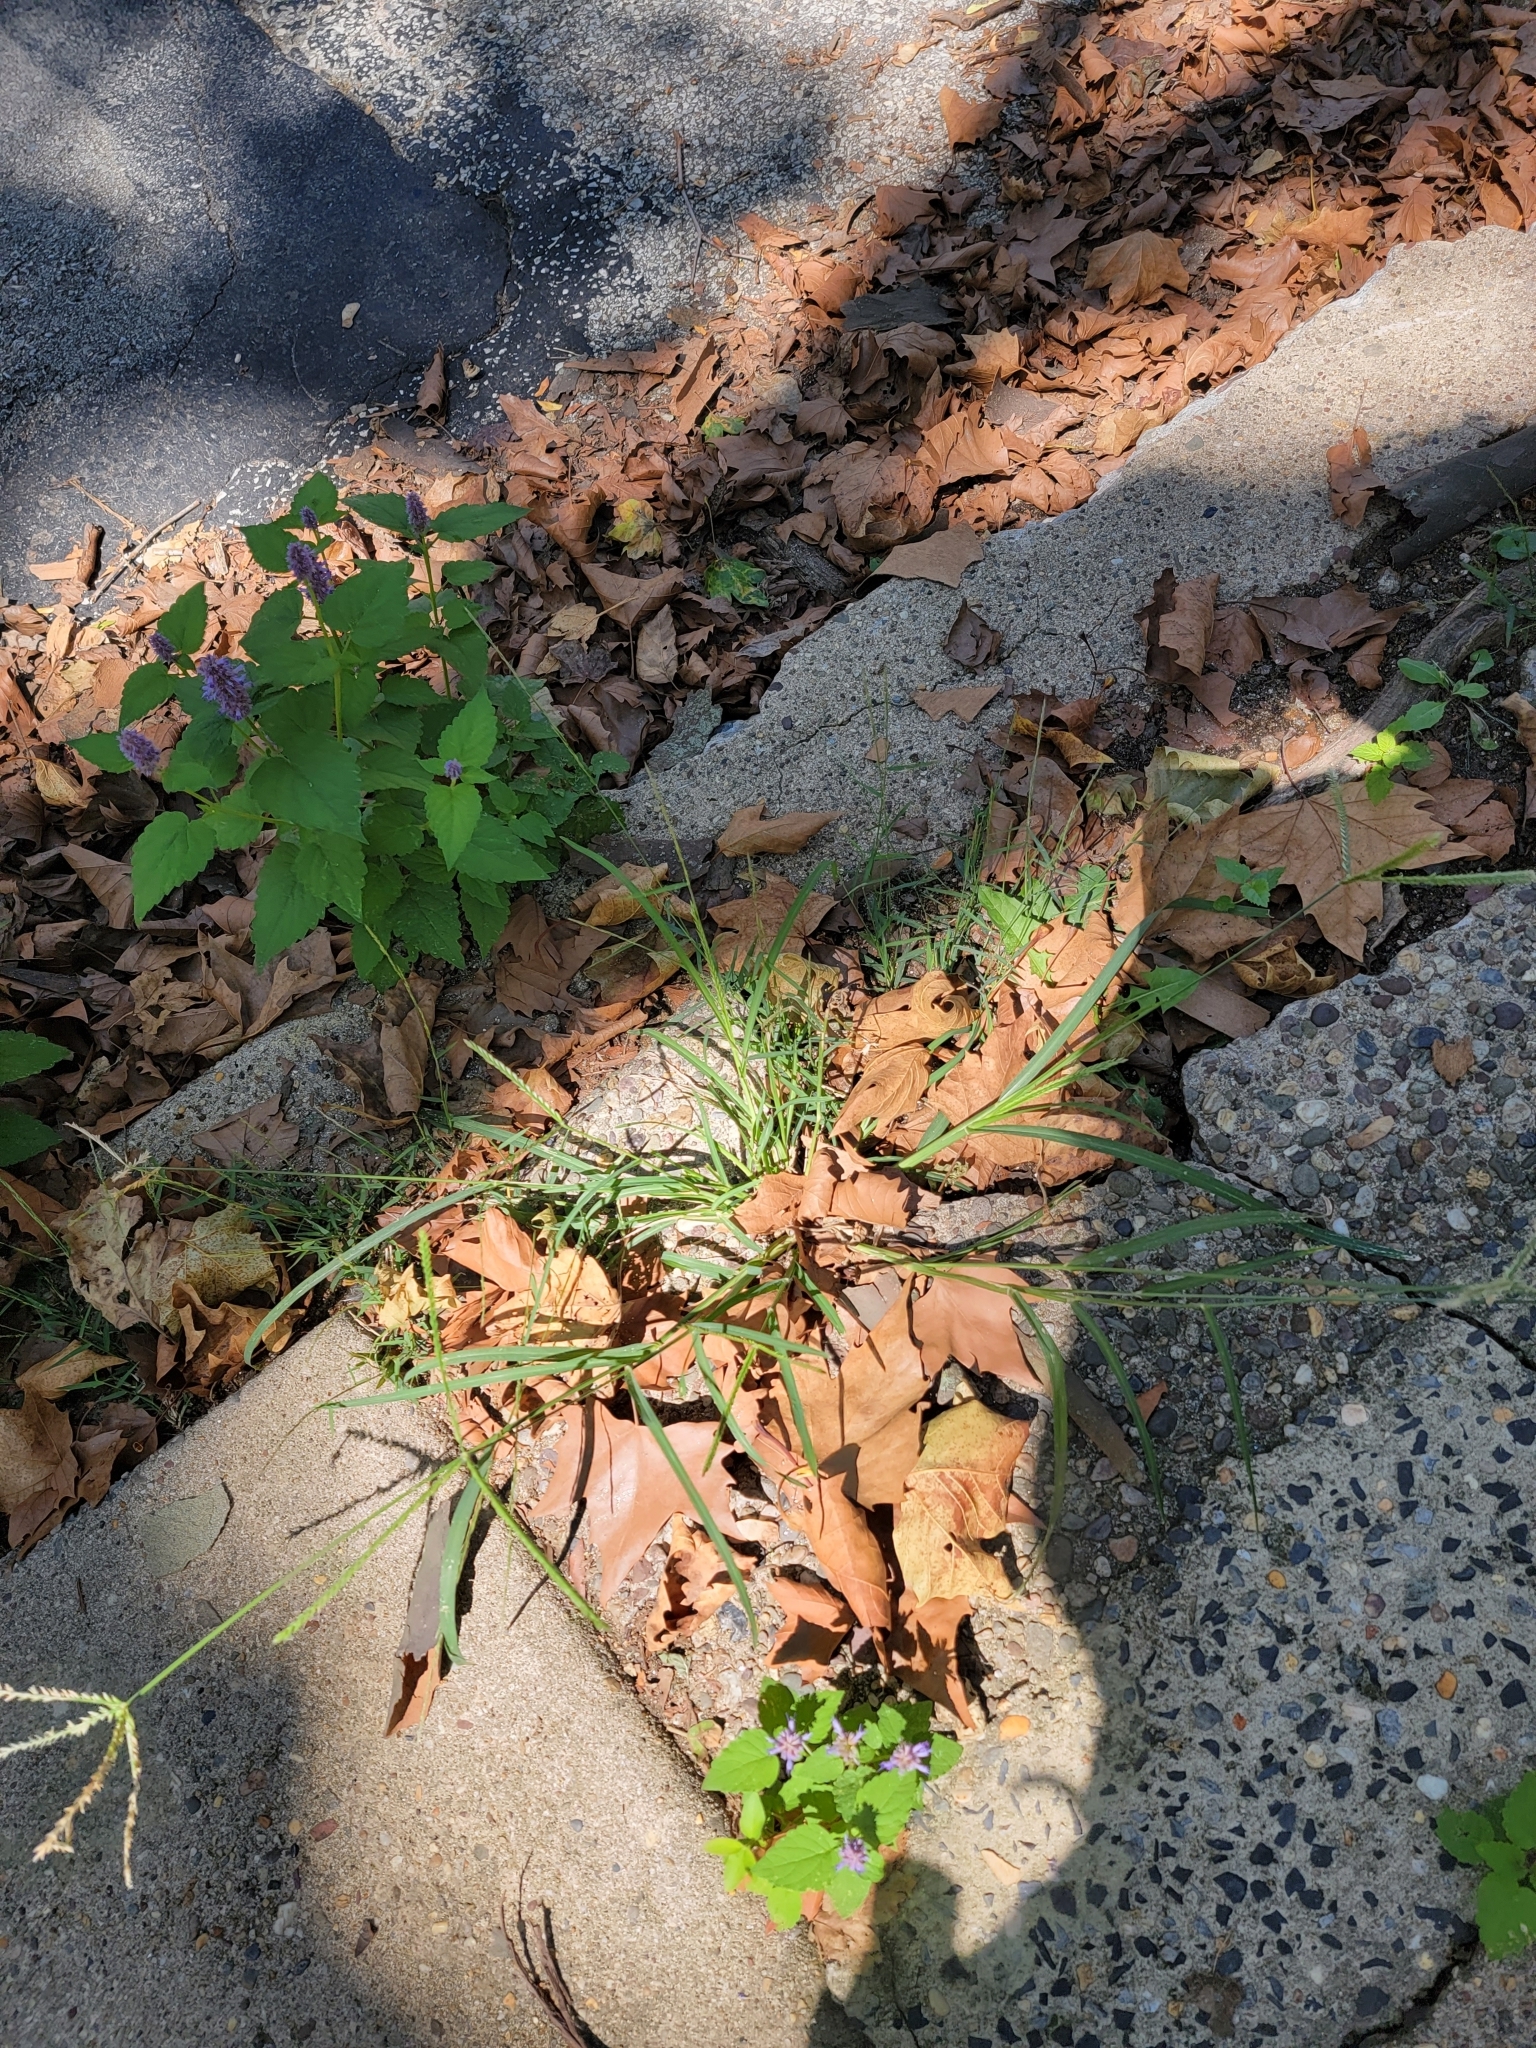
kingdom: Plantae
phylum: Tracheophyta
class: Liliopsida
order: Poales
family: Poaceae
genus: Eleusine
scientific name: Eleusine indica
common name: Yard-grass
